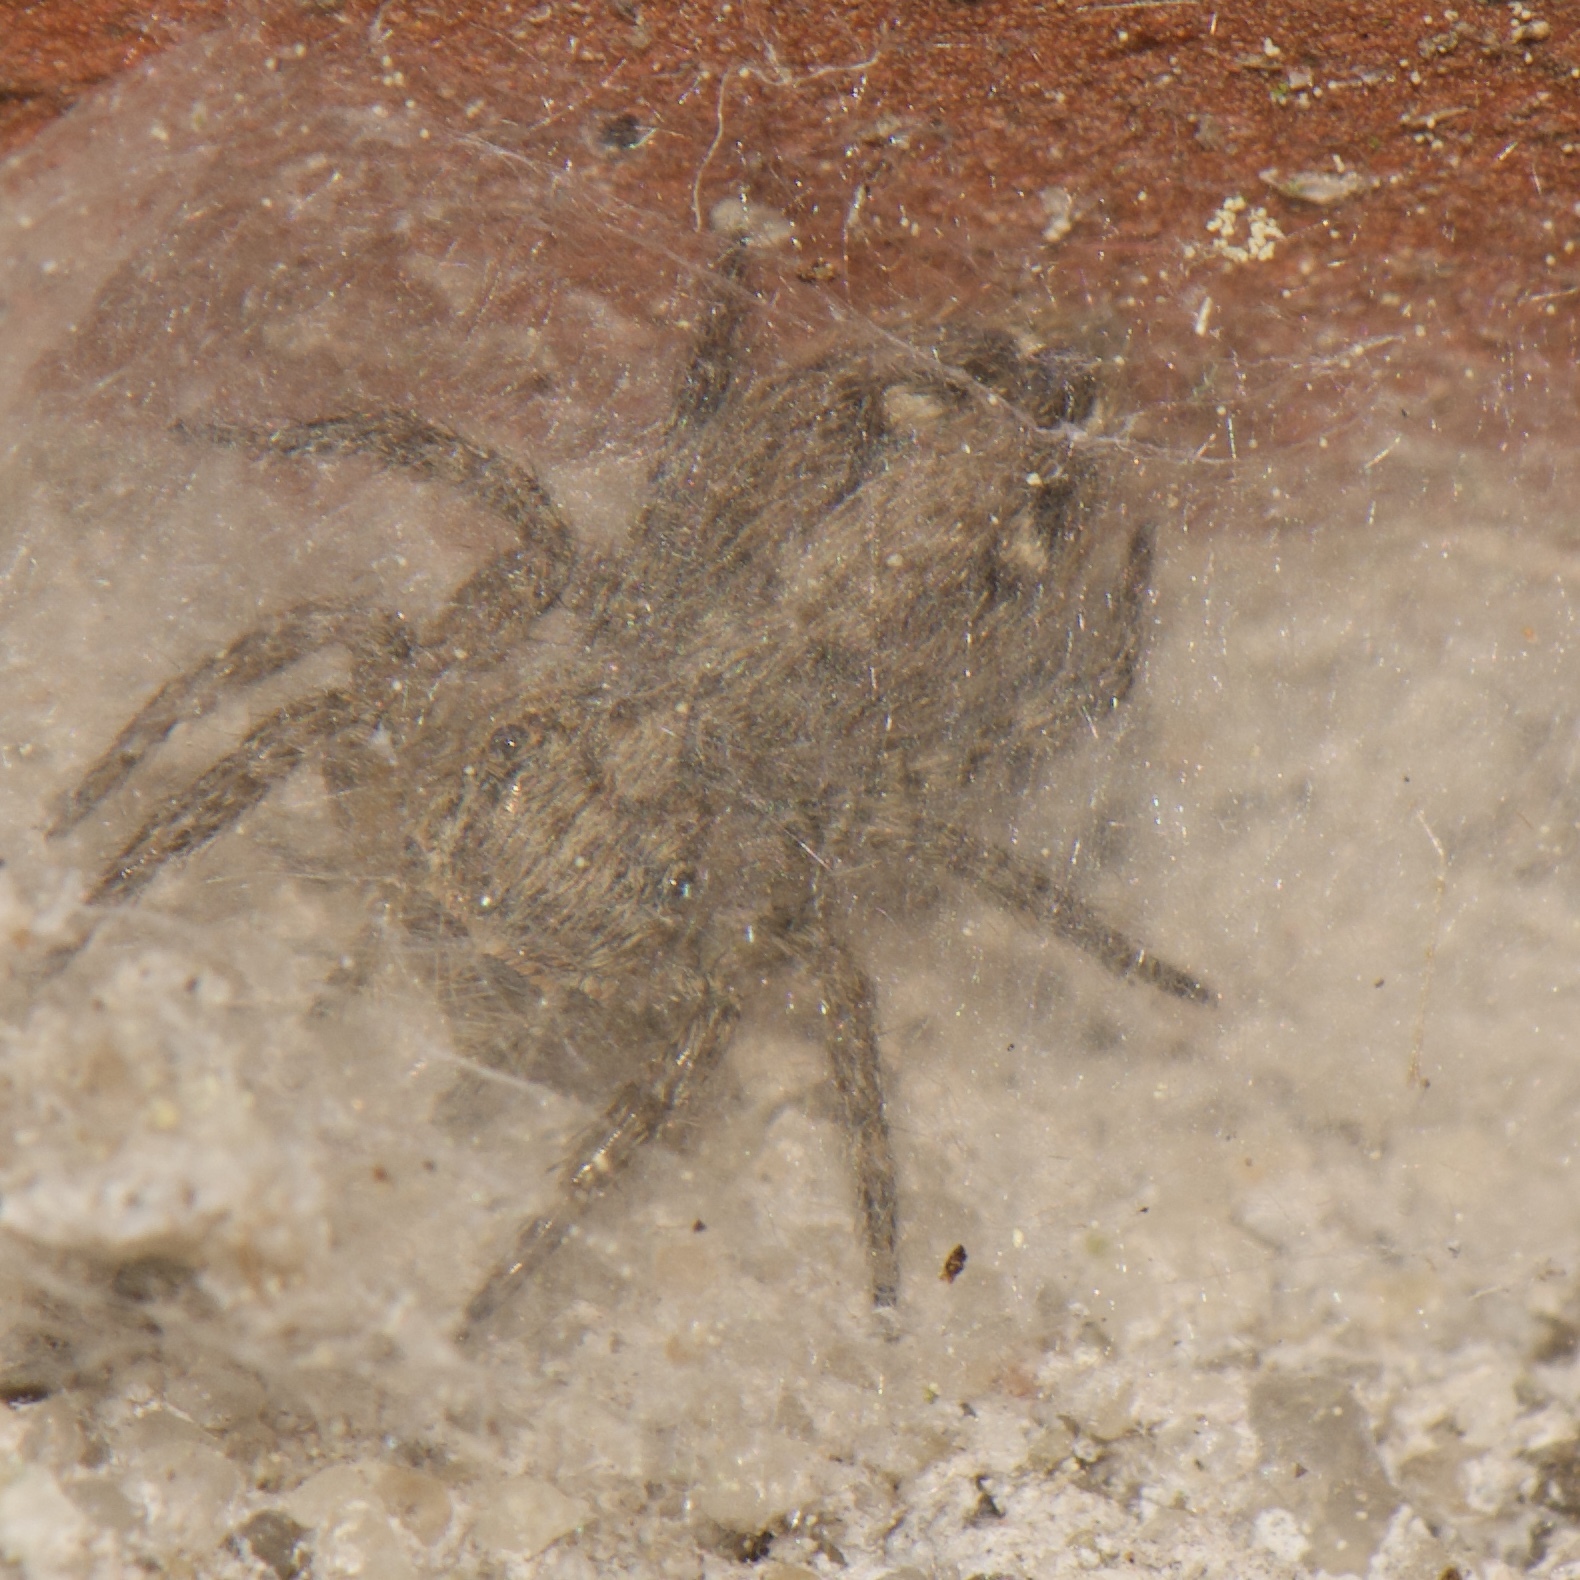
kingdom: Animalia
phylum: Arthropoda
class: Arachnida
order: Araneae
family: Salticidae
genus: Plexippus
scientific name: Plexippus paykulli
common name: Pantropical jumper
